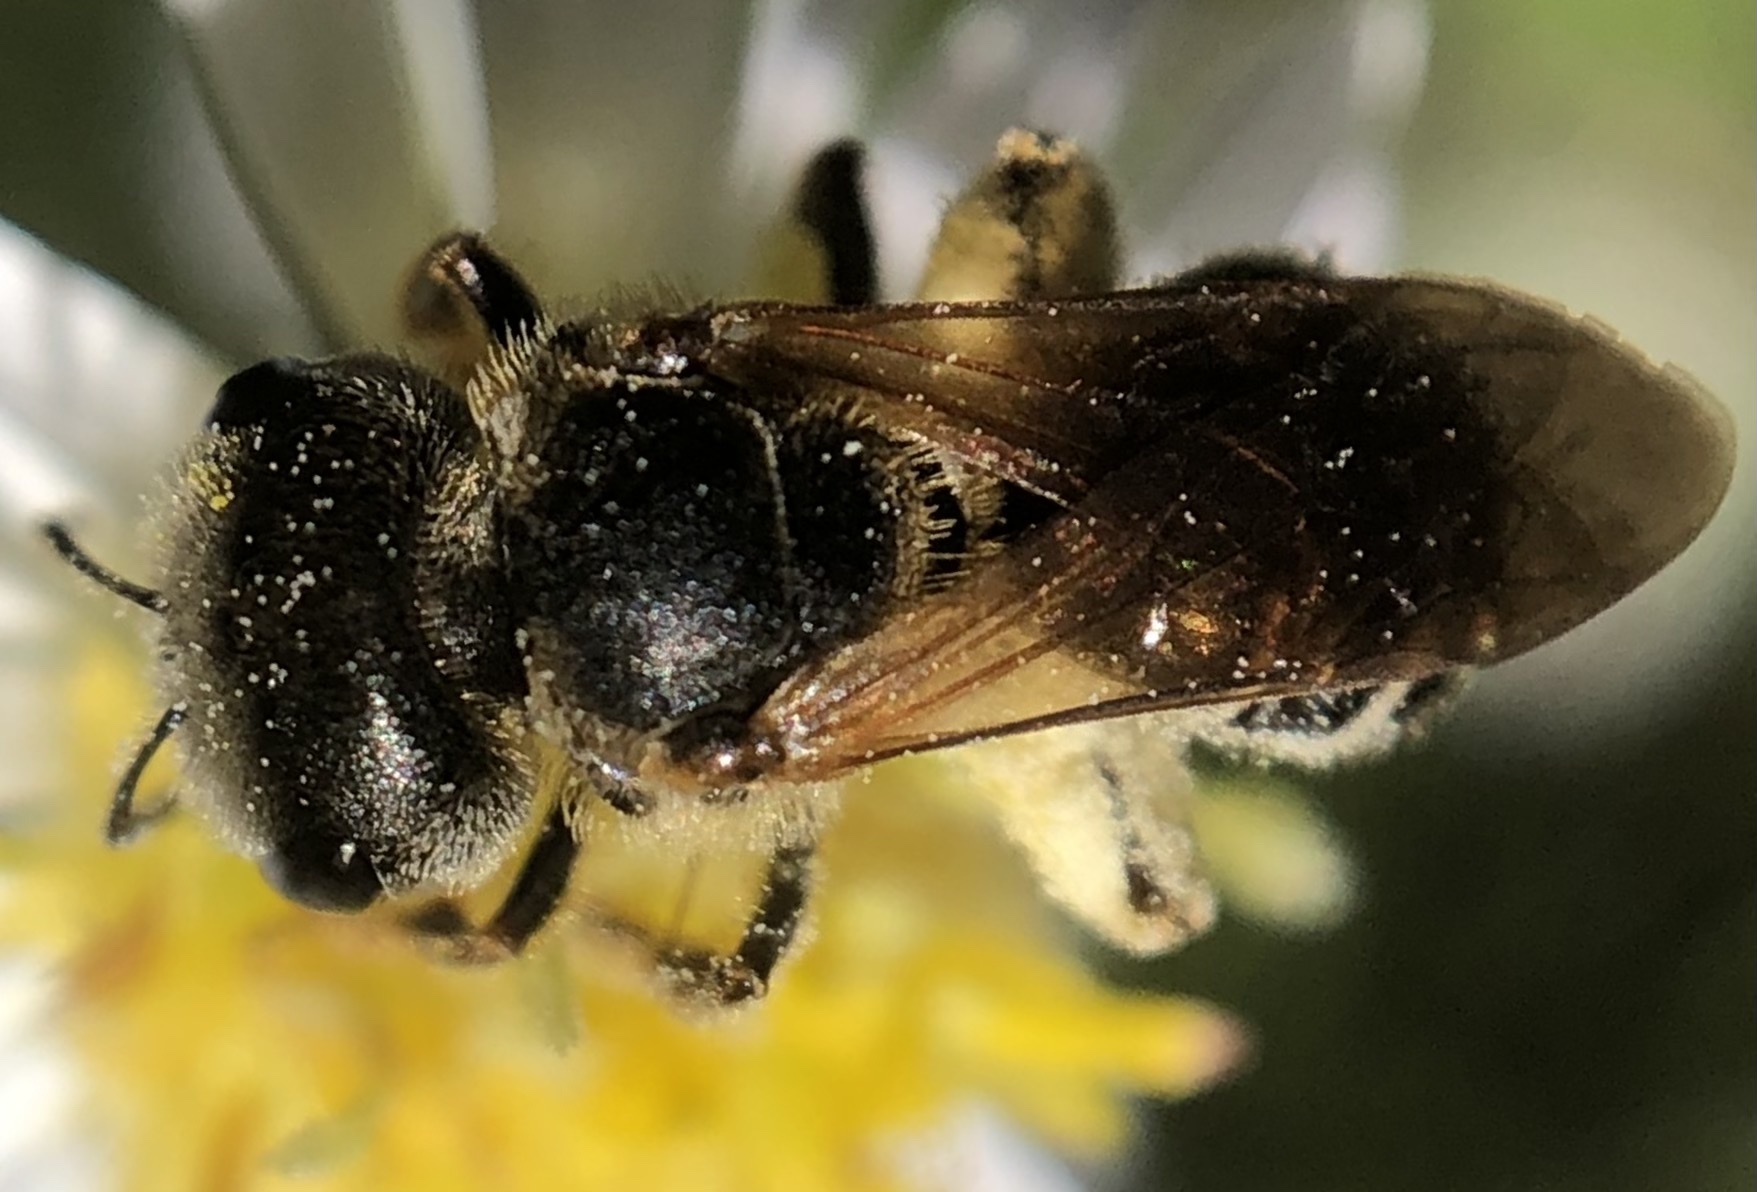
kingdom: Animalia
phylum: Arthropoda
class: Insecta
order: Hymenoptera
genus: Odontalictus
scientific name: Odontalictus
